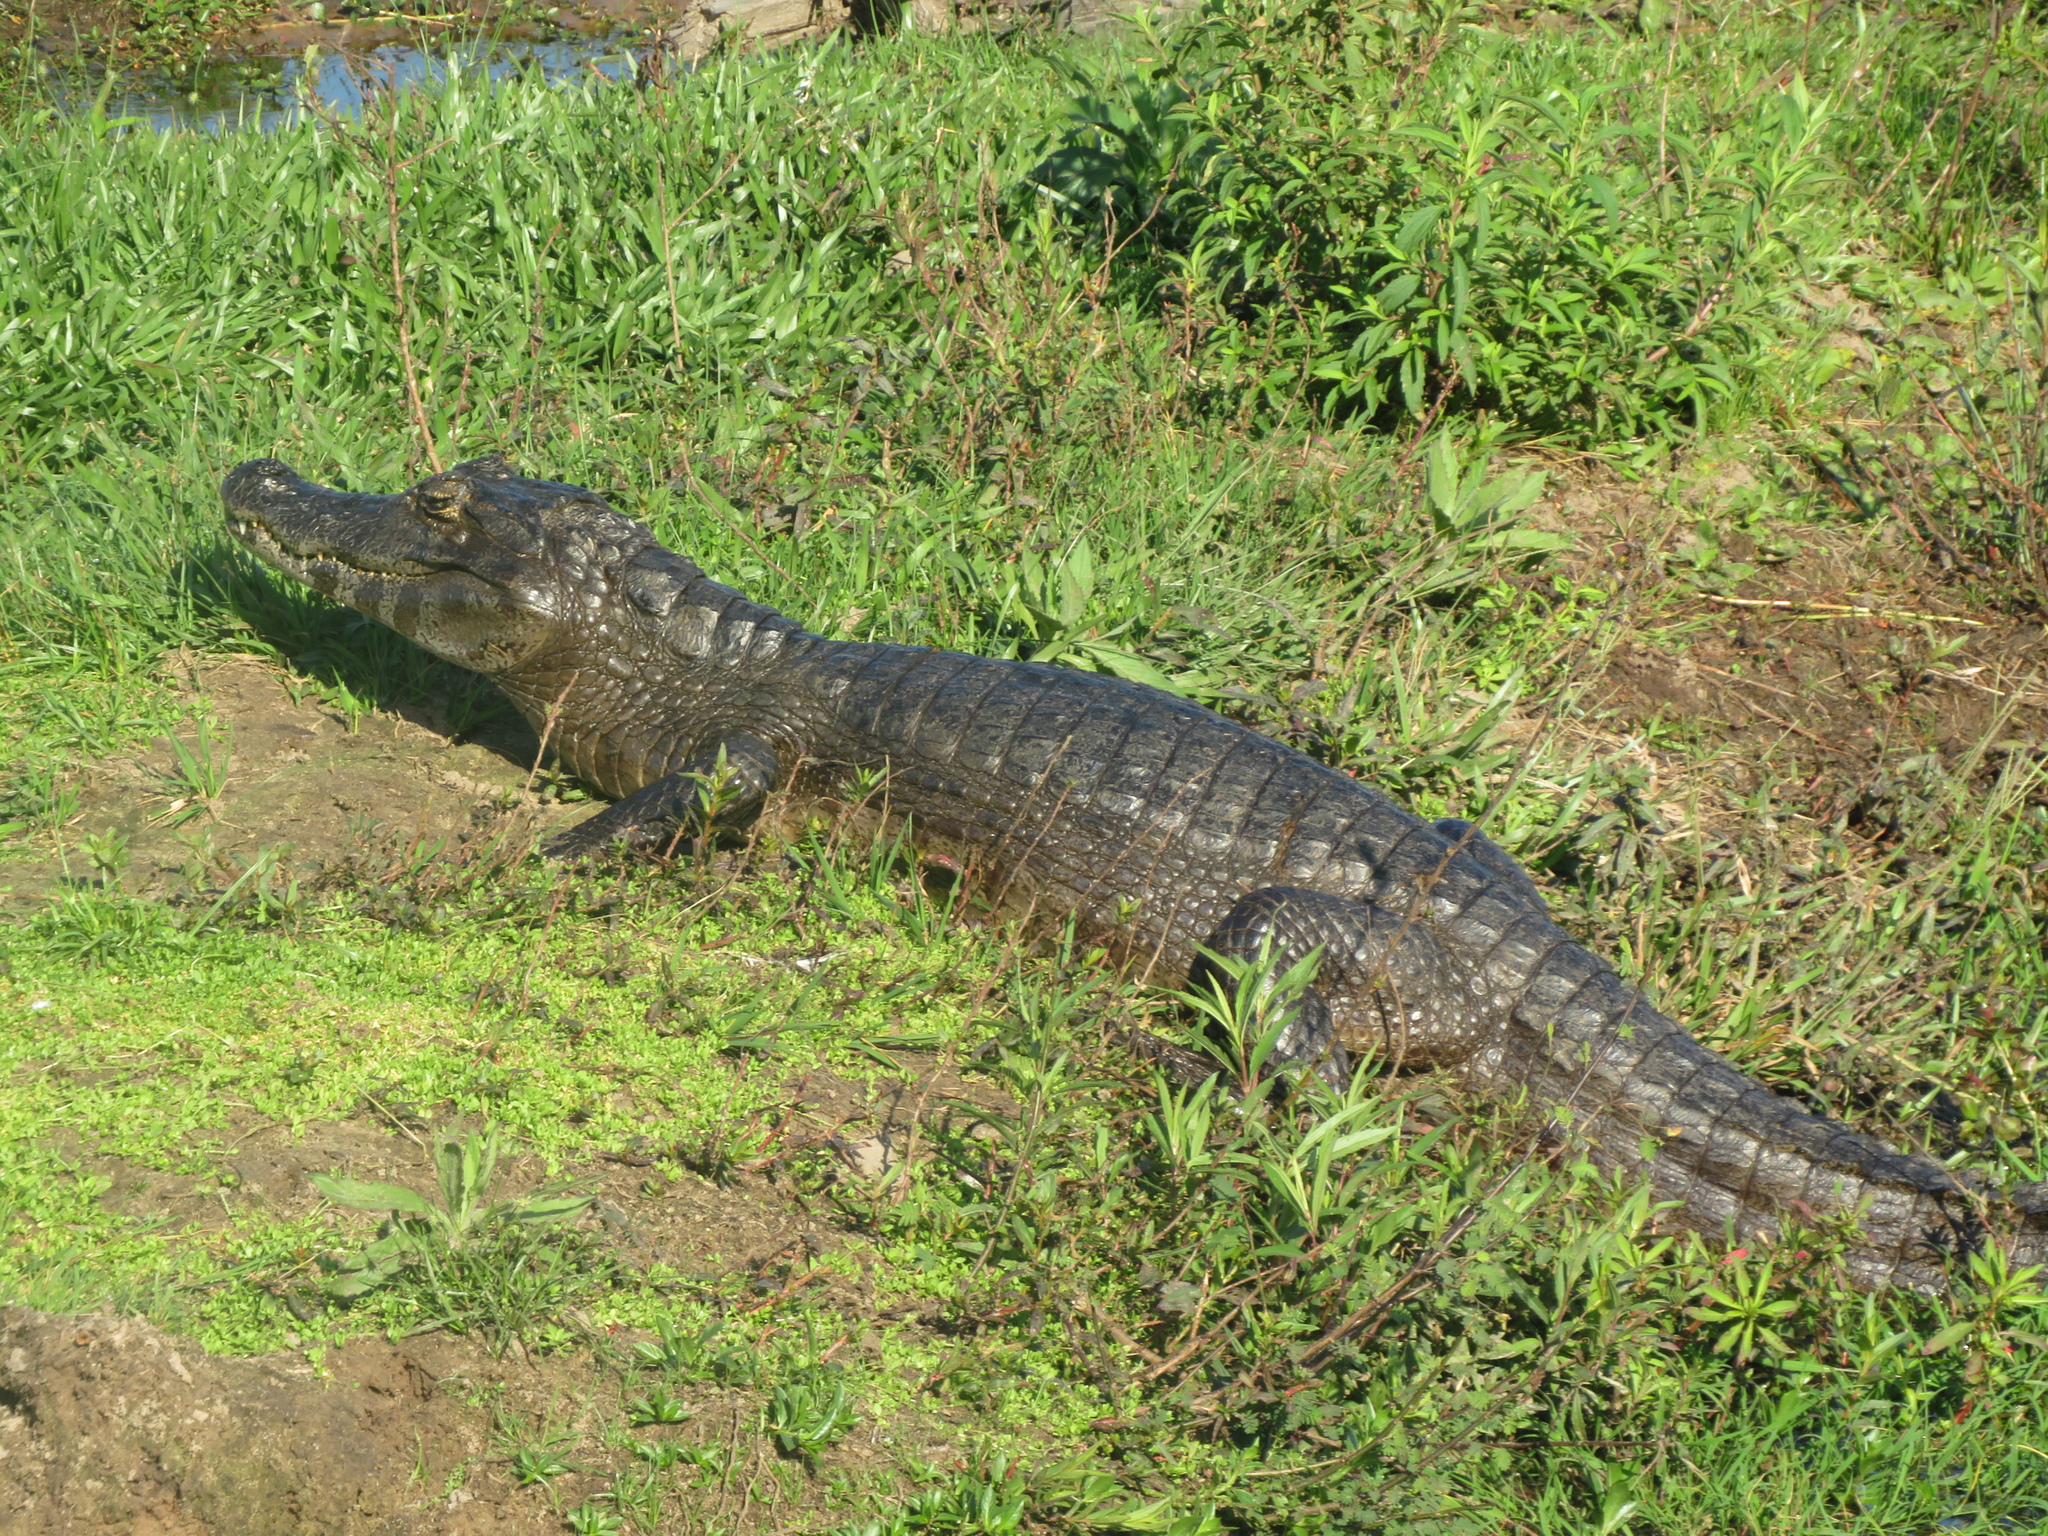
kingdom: Animalia
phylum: Chordata
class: Crocodylia
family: Alligatoridae
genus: Caiman
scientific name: Caiman yacare
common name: Yacare caiman
